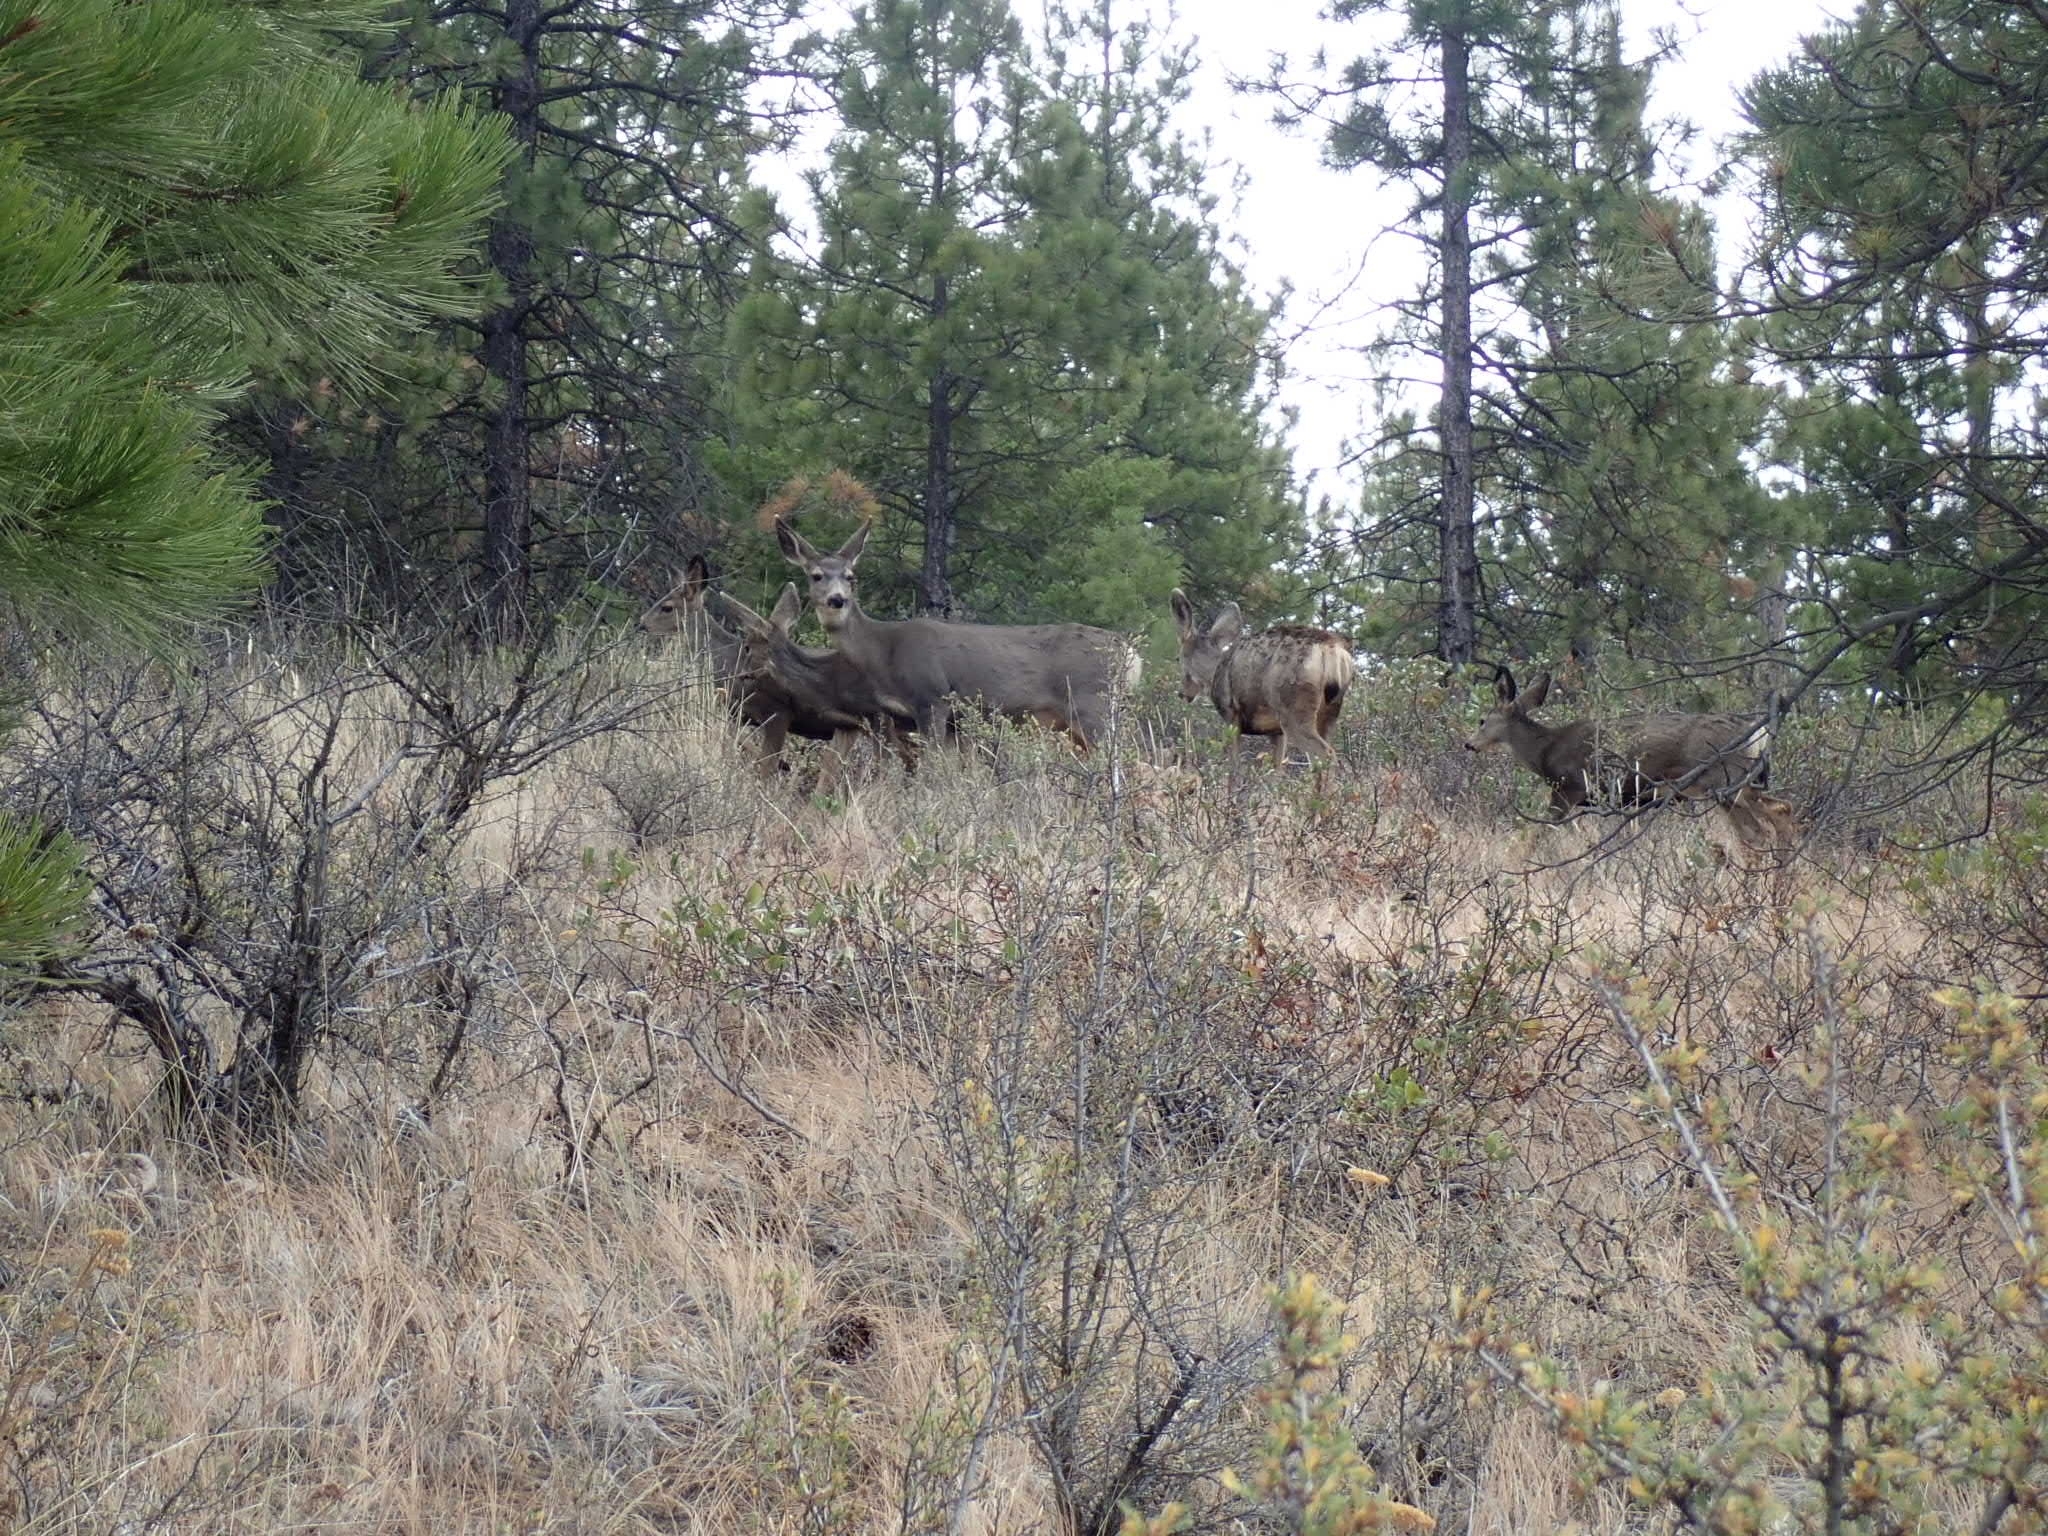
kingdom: Animalia
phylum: Chordata
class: Mammalia
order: Artiodactyla
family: Cervidae
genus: Odocoileus
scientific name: Odocoileus hemionus
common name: Mule deer
